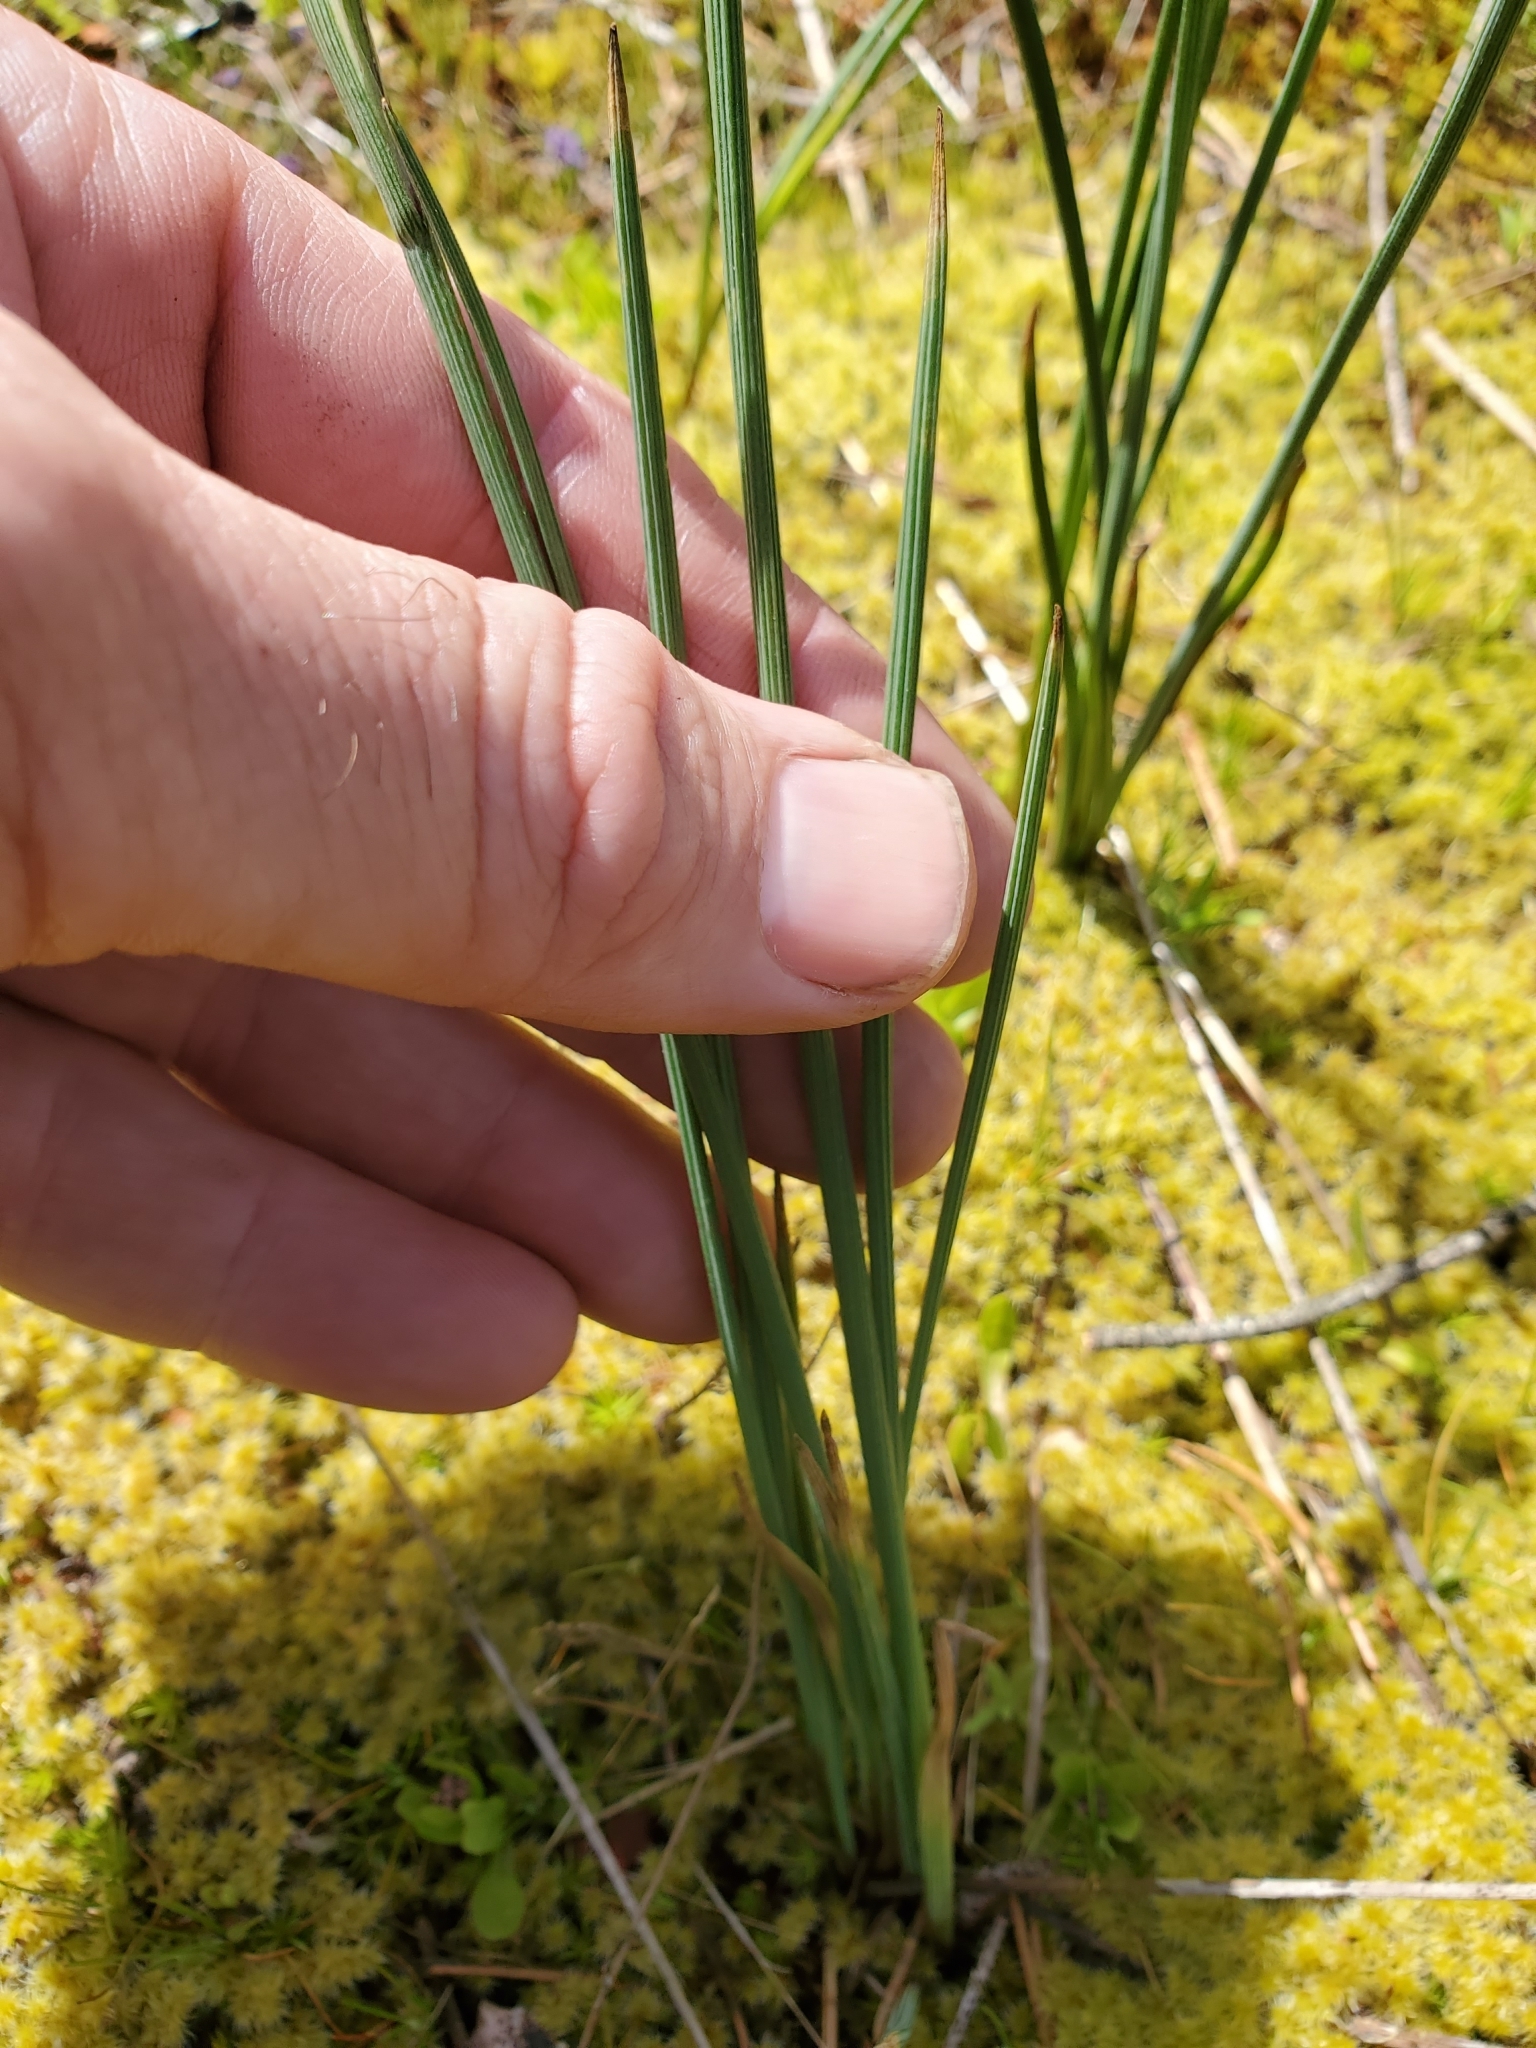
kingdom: Plantae
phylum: Tracheophyta
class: Liliopsida
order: Asparagales
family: Iridaceae
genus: Olsynium
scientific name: Olsynium douglasii
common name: Douglas' grasswidow
